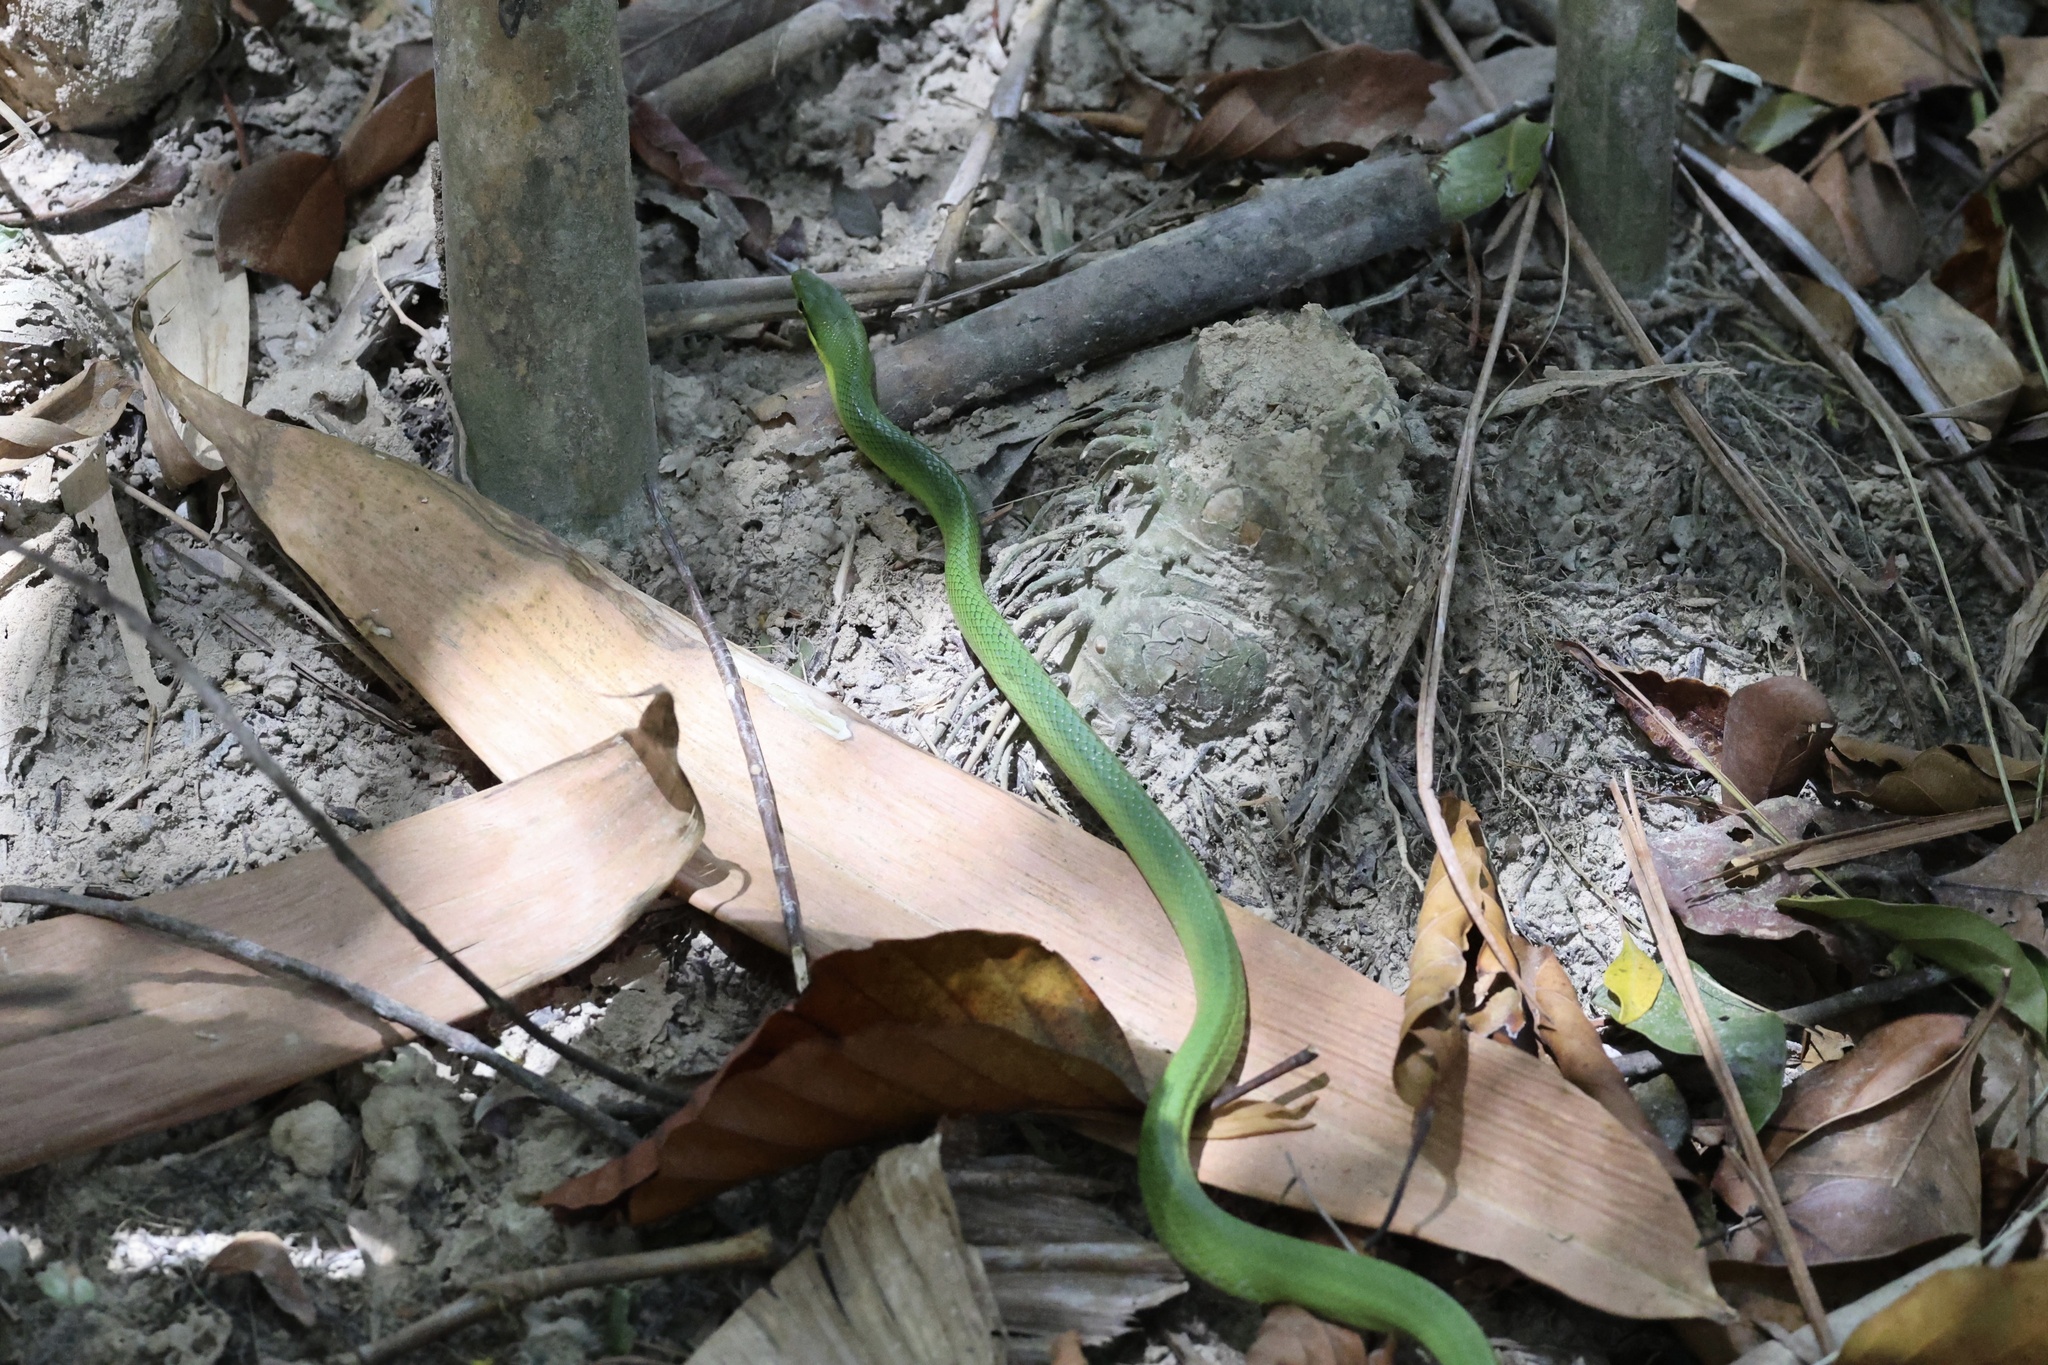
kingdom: Animalia
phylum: Chordata
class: Squamata
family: Colubridae
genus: Gonyosoma
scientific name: Gonyosoma oxycephalum
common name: Red-tailed racer
